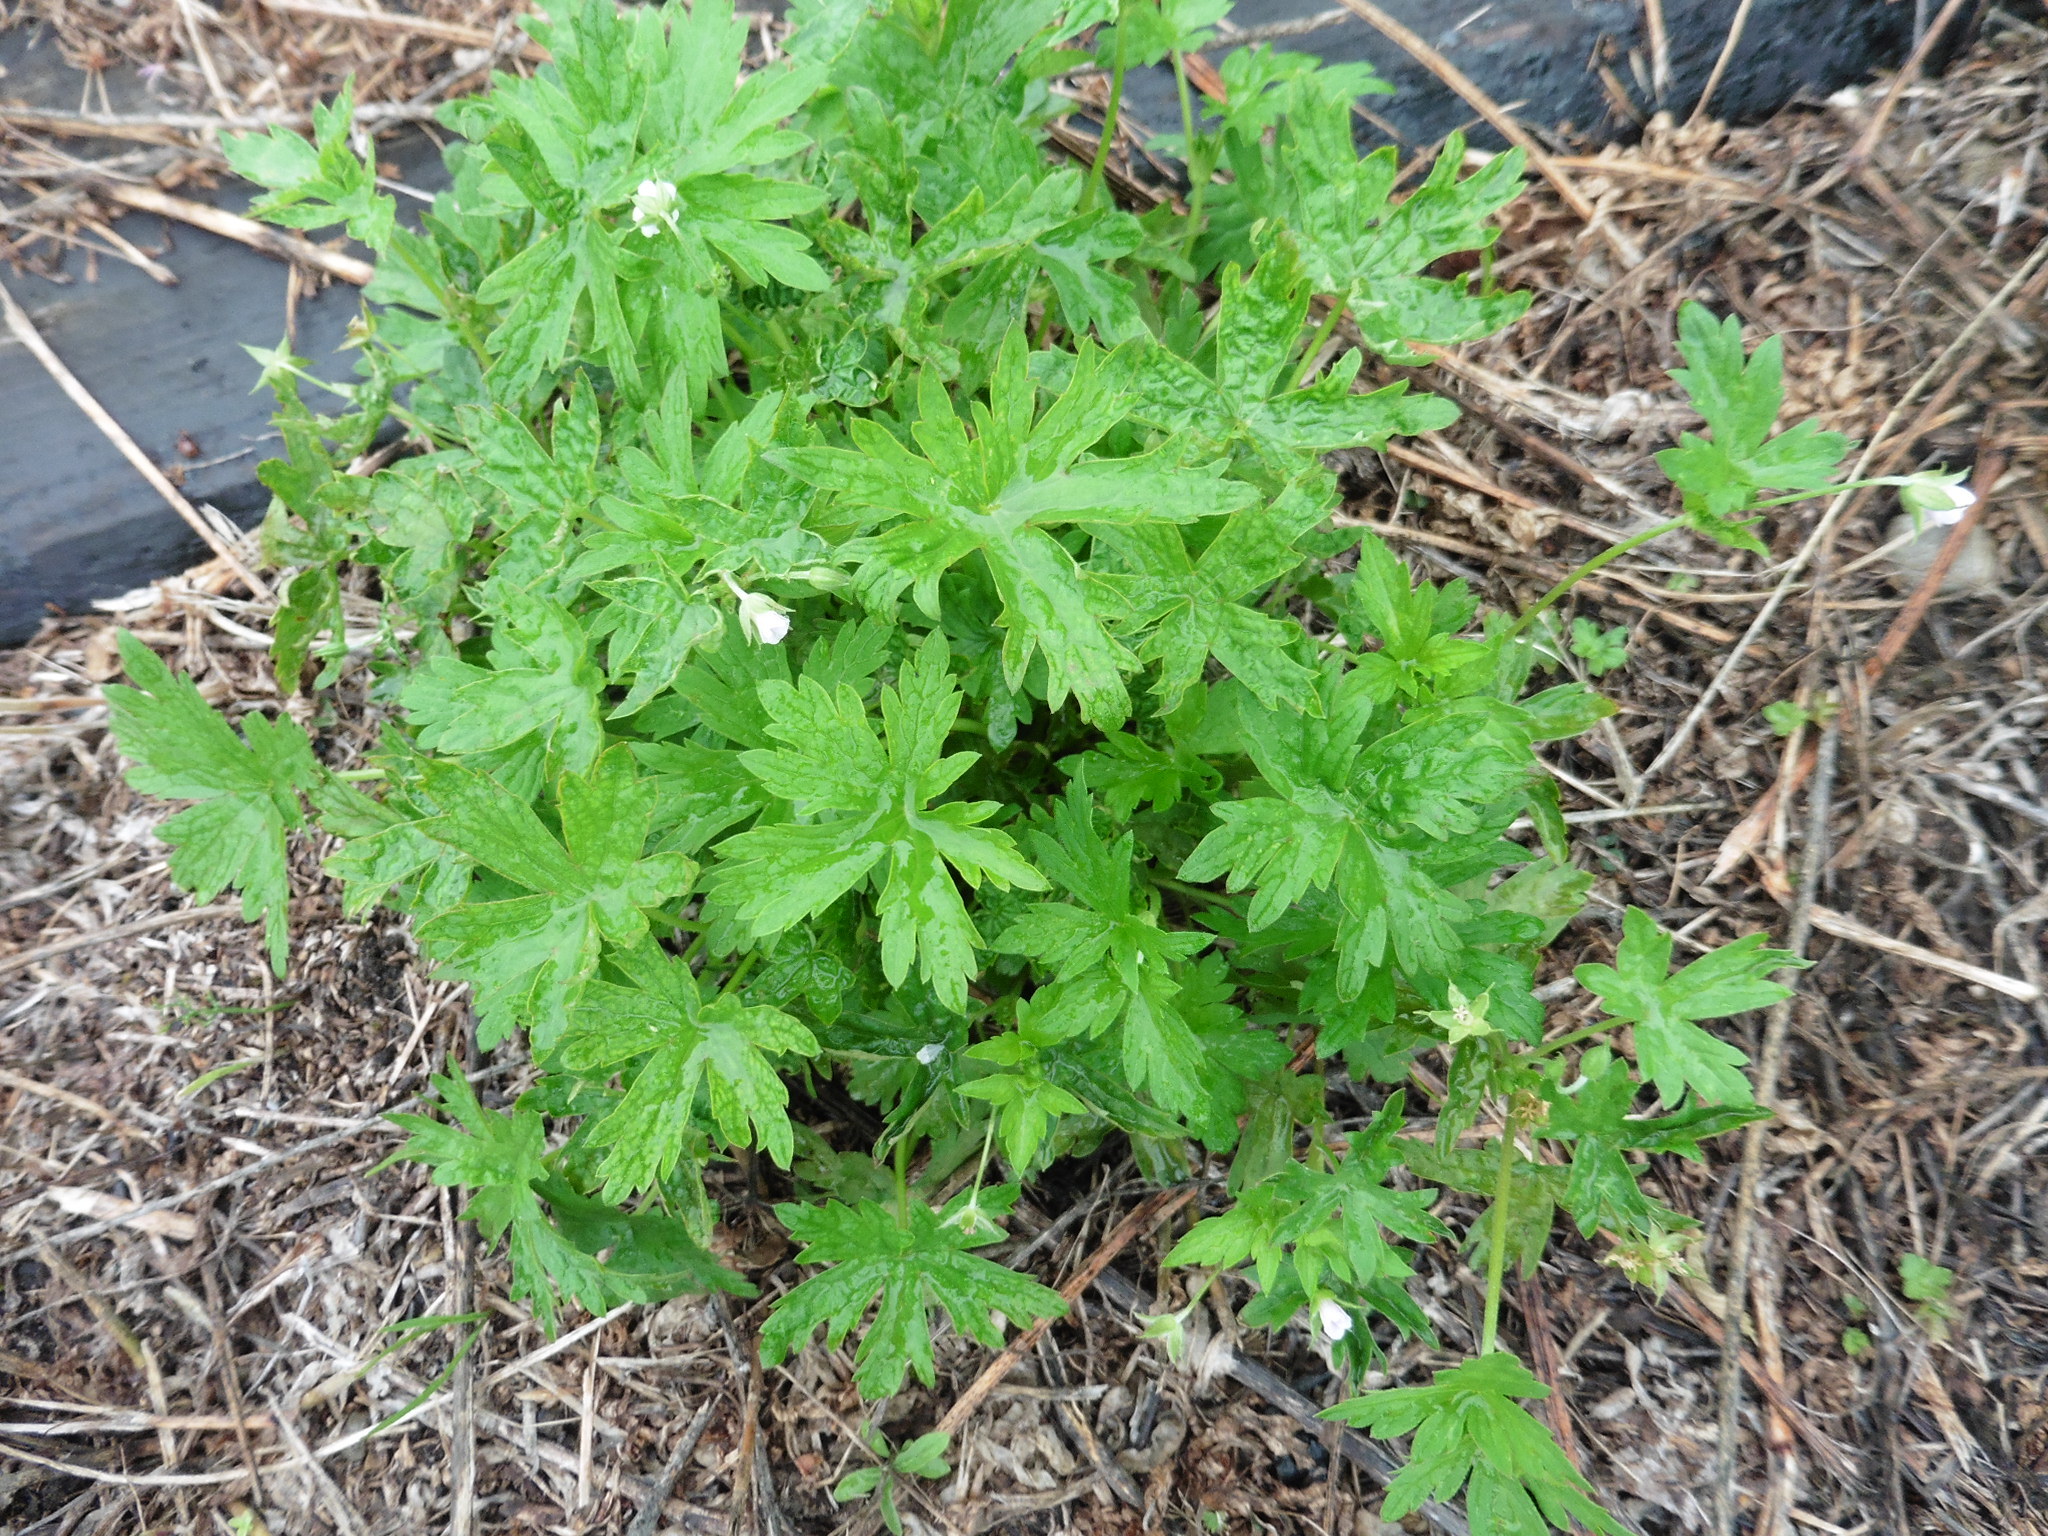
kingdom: Plantae
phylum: Tracheophyta
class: Magnoliopsida
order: Geraniales
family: Geraniaceae
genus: Geranium
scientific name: Geranium sibiricum
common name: Siberian crane's-bill
